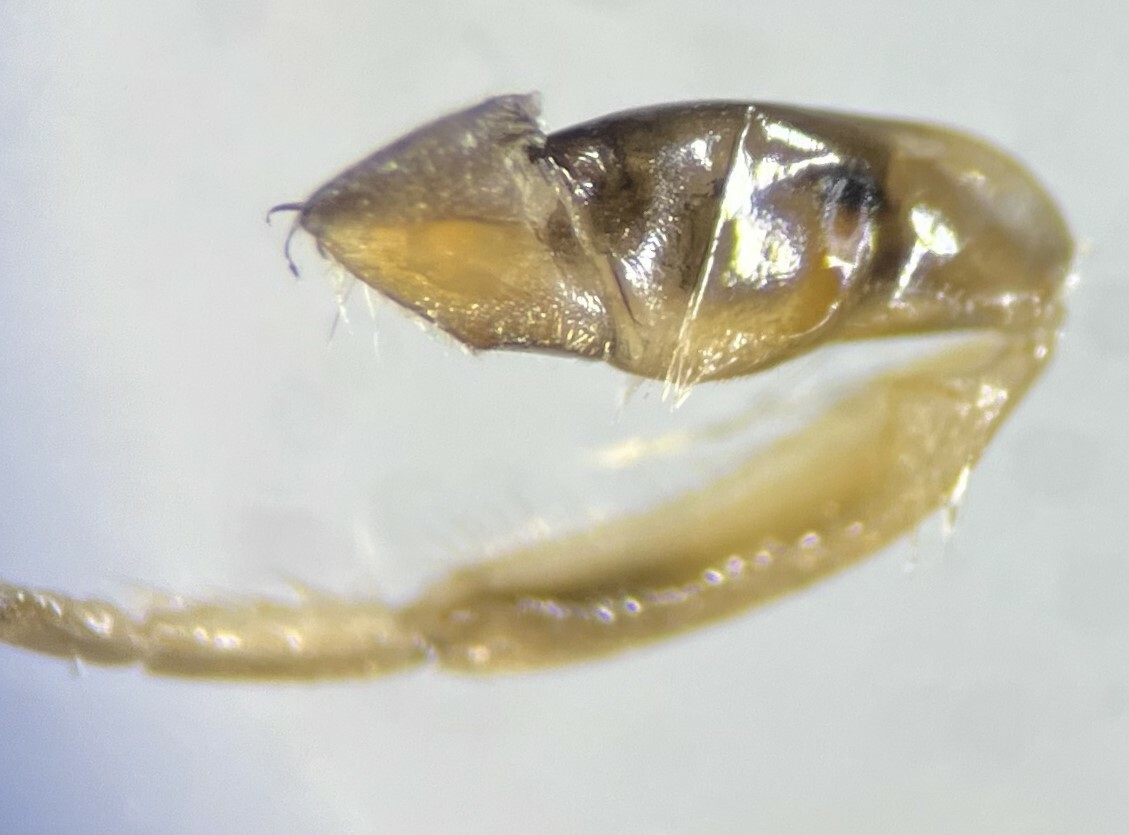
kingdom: Animalia
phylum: Arthropoda
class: Insecta
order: Hemiptera
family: Notonectidae
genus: Buenoa
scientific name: Buenoa scimitra
